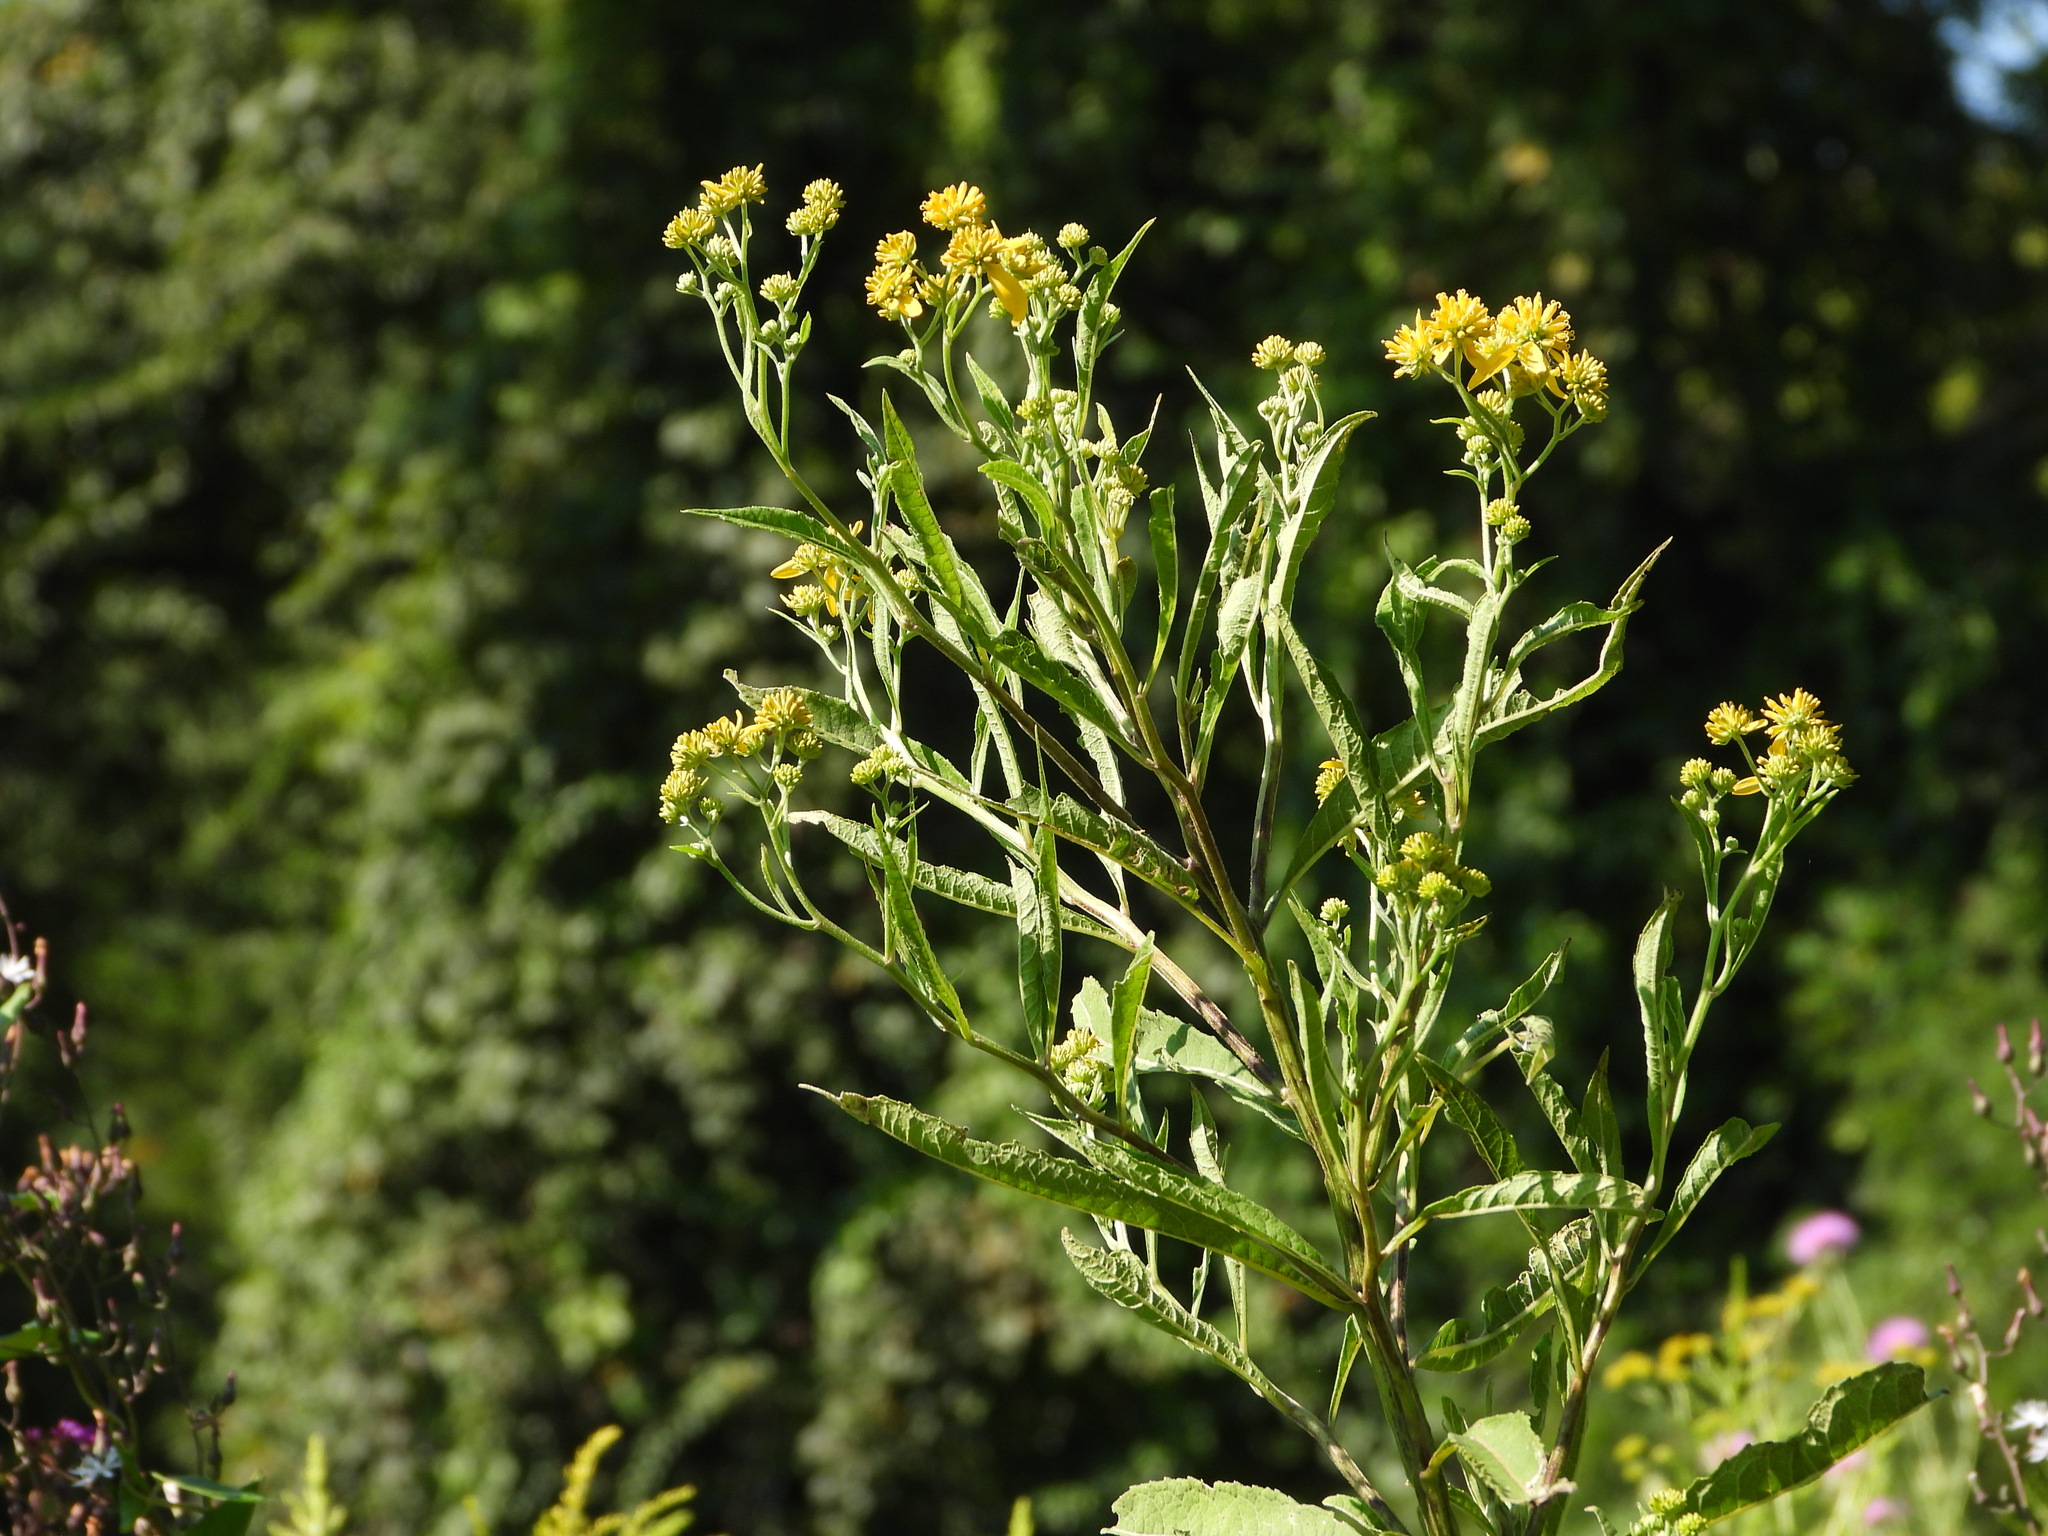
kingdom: Plantae
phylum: Tracheophyta
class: Magnoliopsida
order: Asterales
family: Asteraceae
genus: Verbesina
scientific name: Verbesina alternifolia
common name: Wingstem
